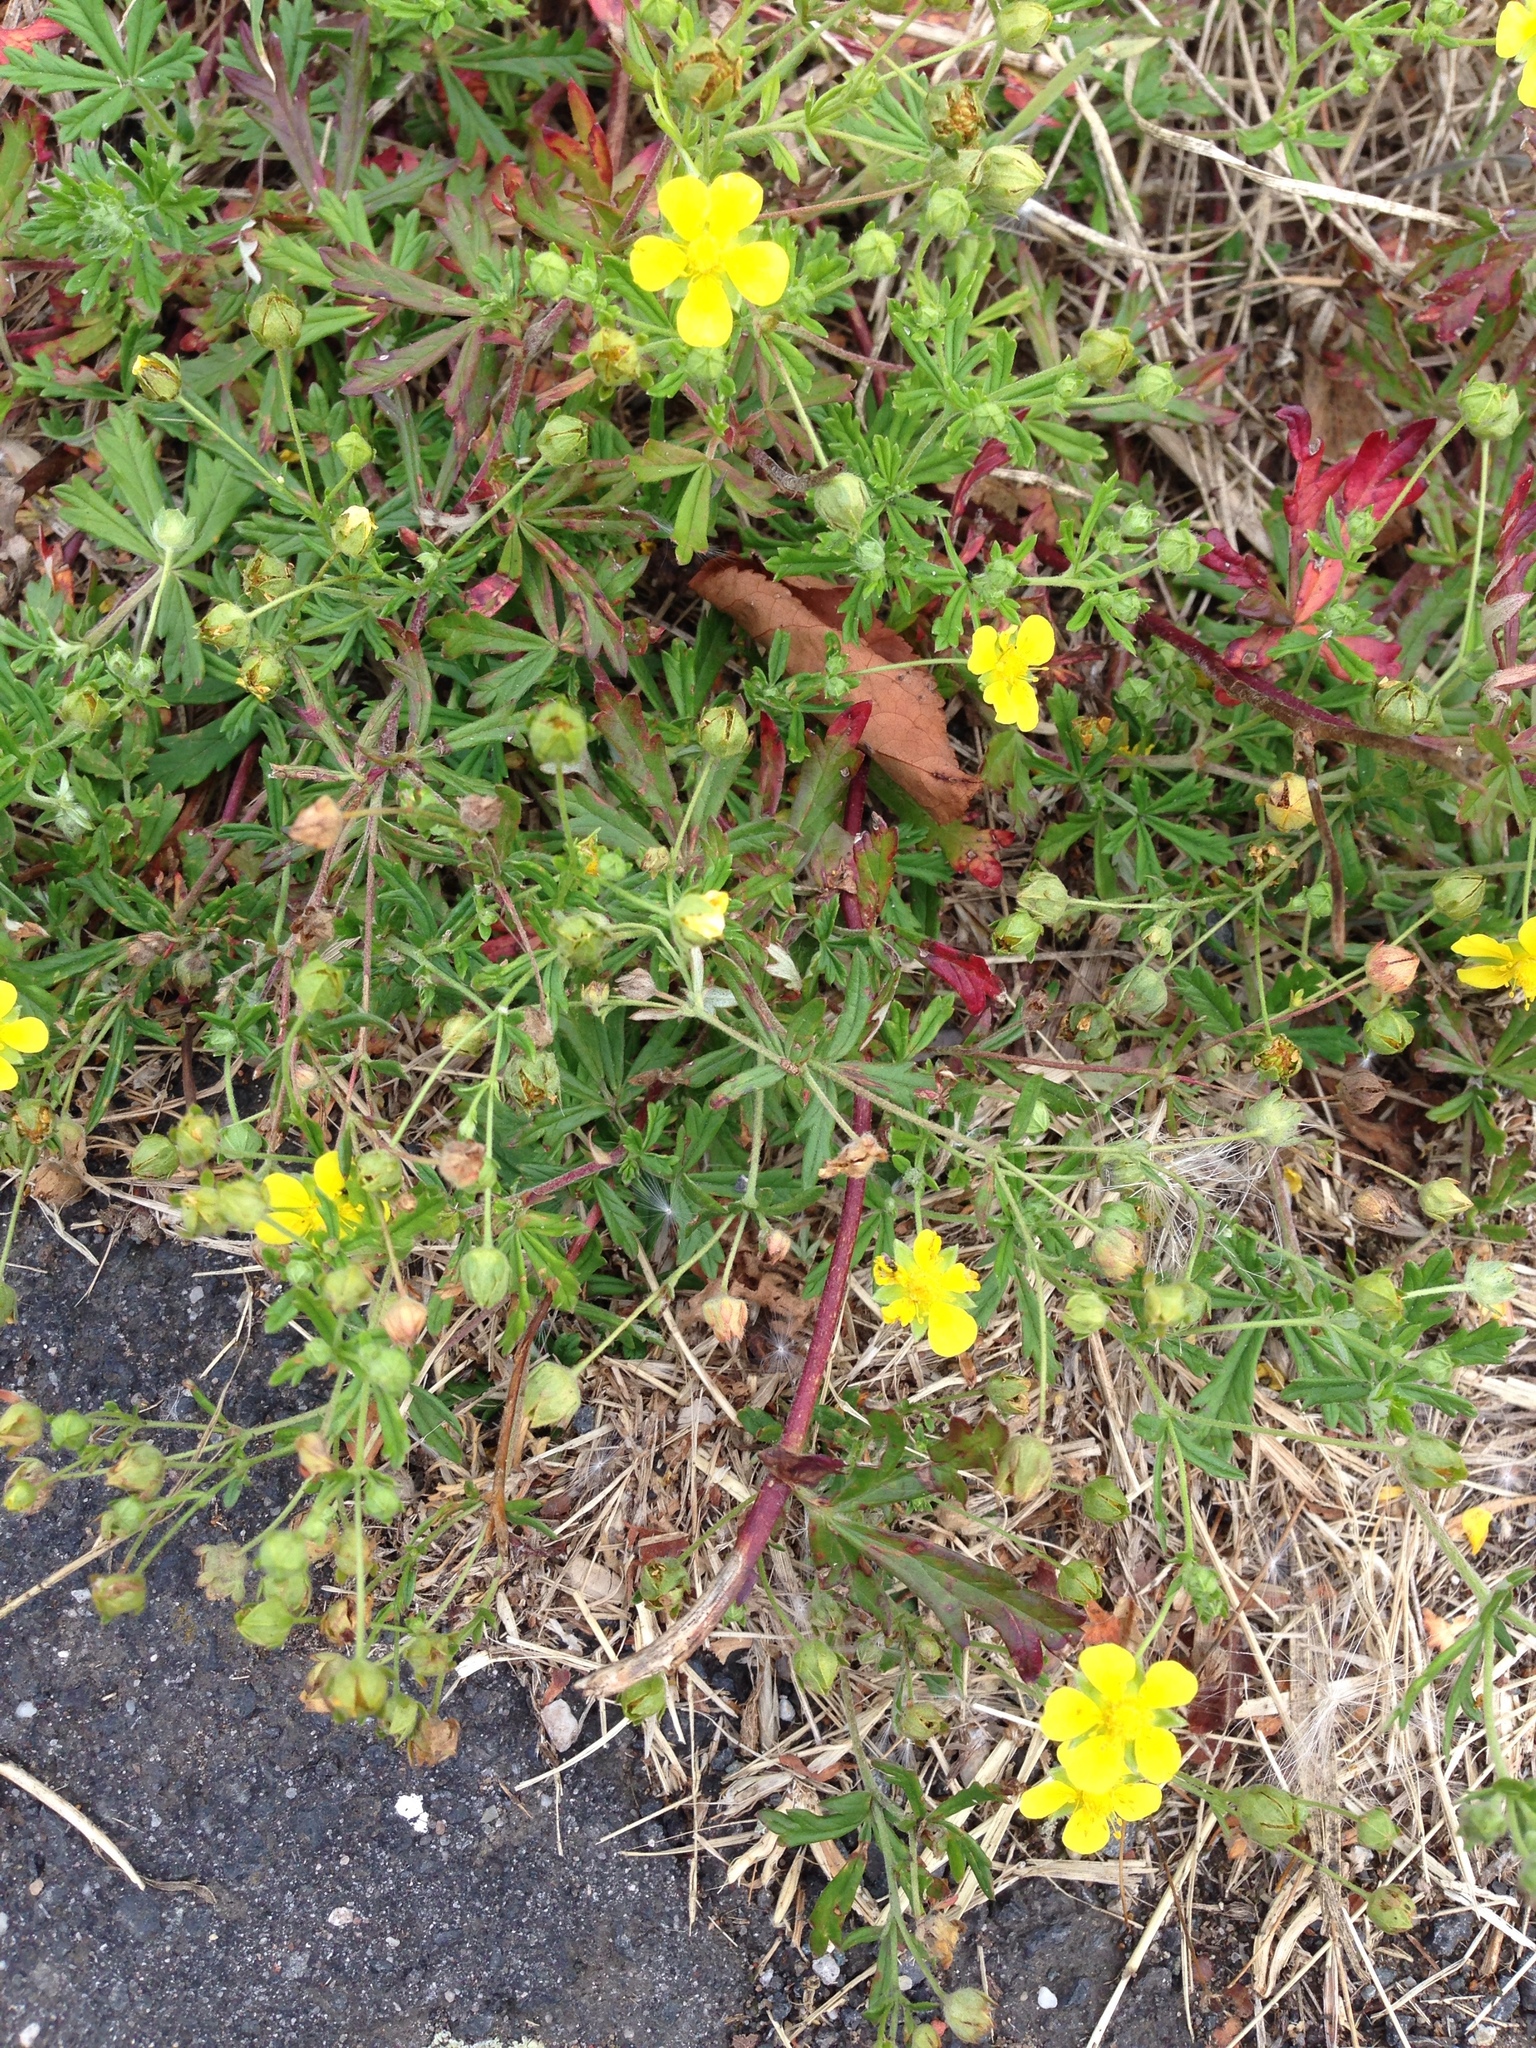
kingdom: Plantae
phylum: Tracheophyta
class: Magnoliopsida
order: Rosales
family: Rosaceae
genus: Potentilla
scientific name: Potentilla argentea
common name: Hoary cinquefoil
